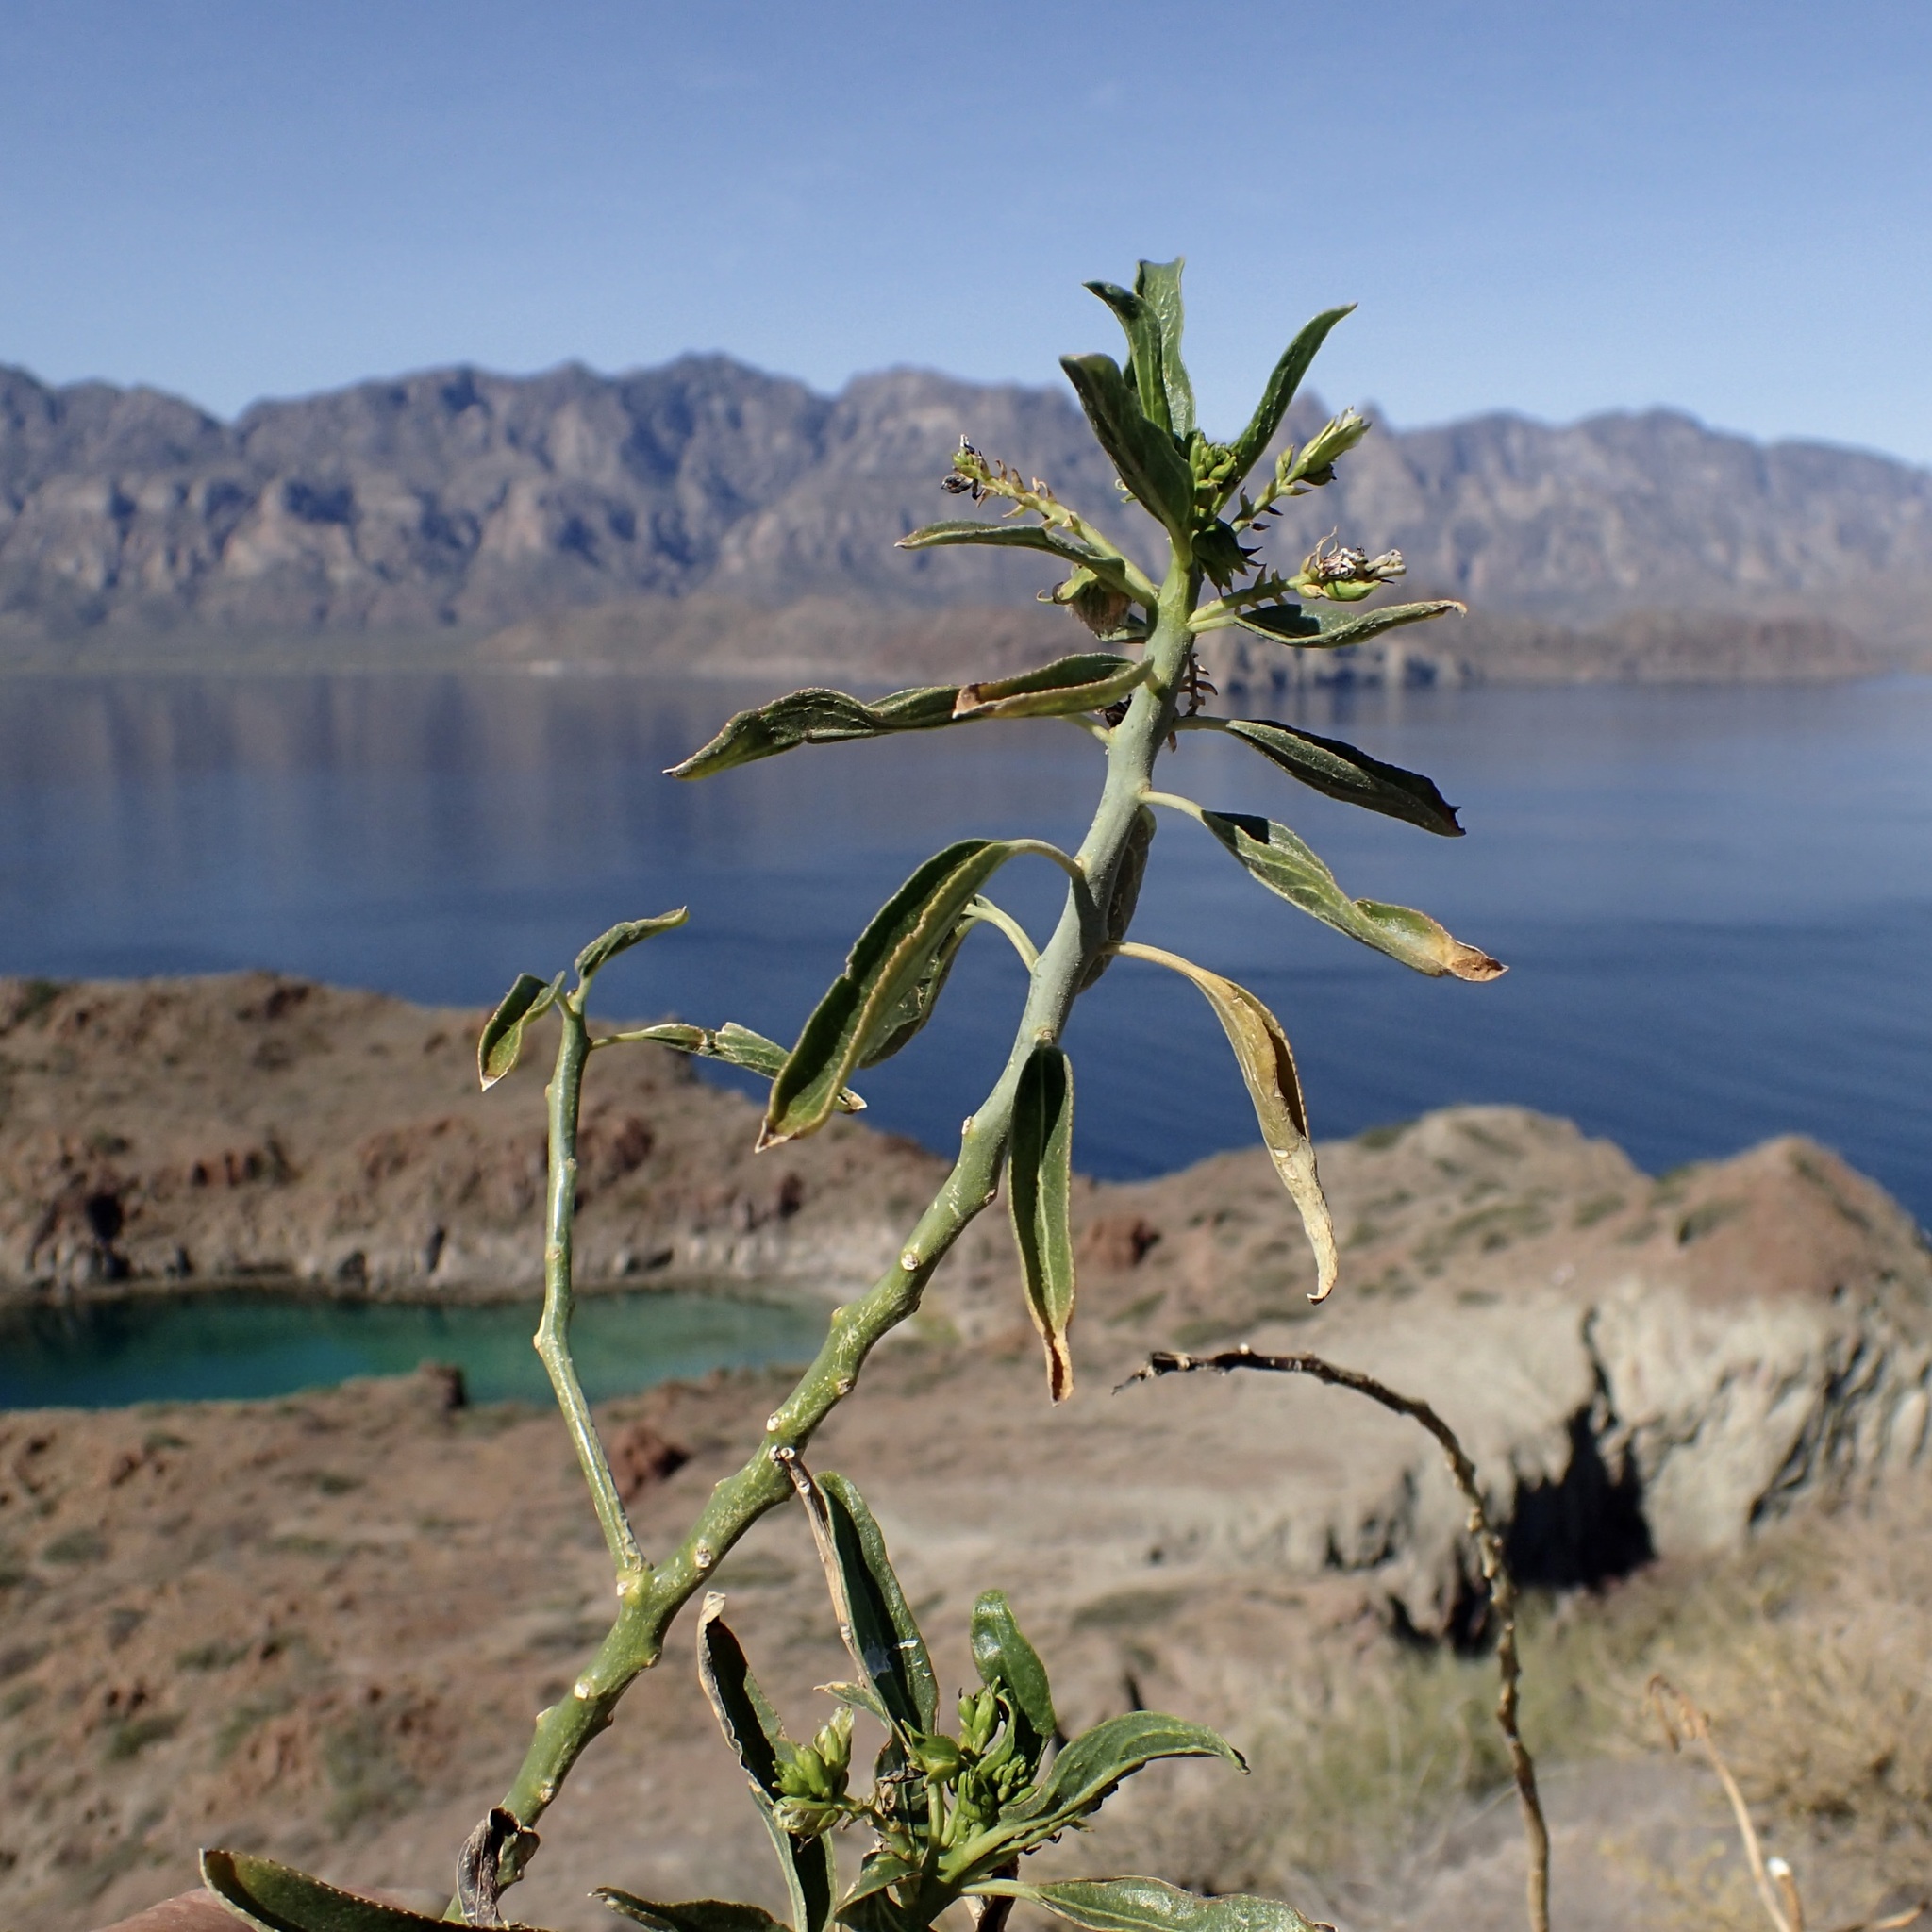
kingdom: Plantae
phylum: Tracheophyta
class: Magnoliopsida
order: Malpighiales
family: Euphorbiaceae
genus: Ditaxis
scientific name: Ditaxis brandegeei
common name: Sonoran silverbush
